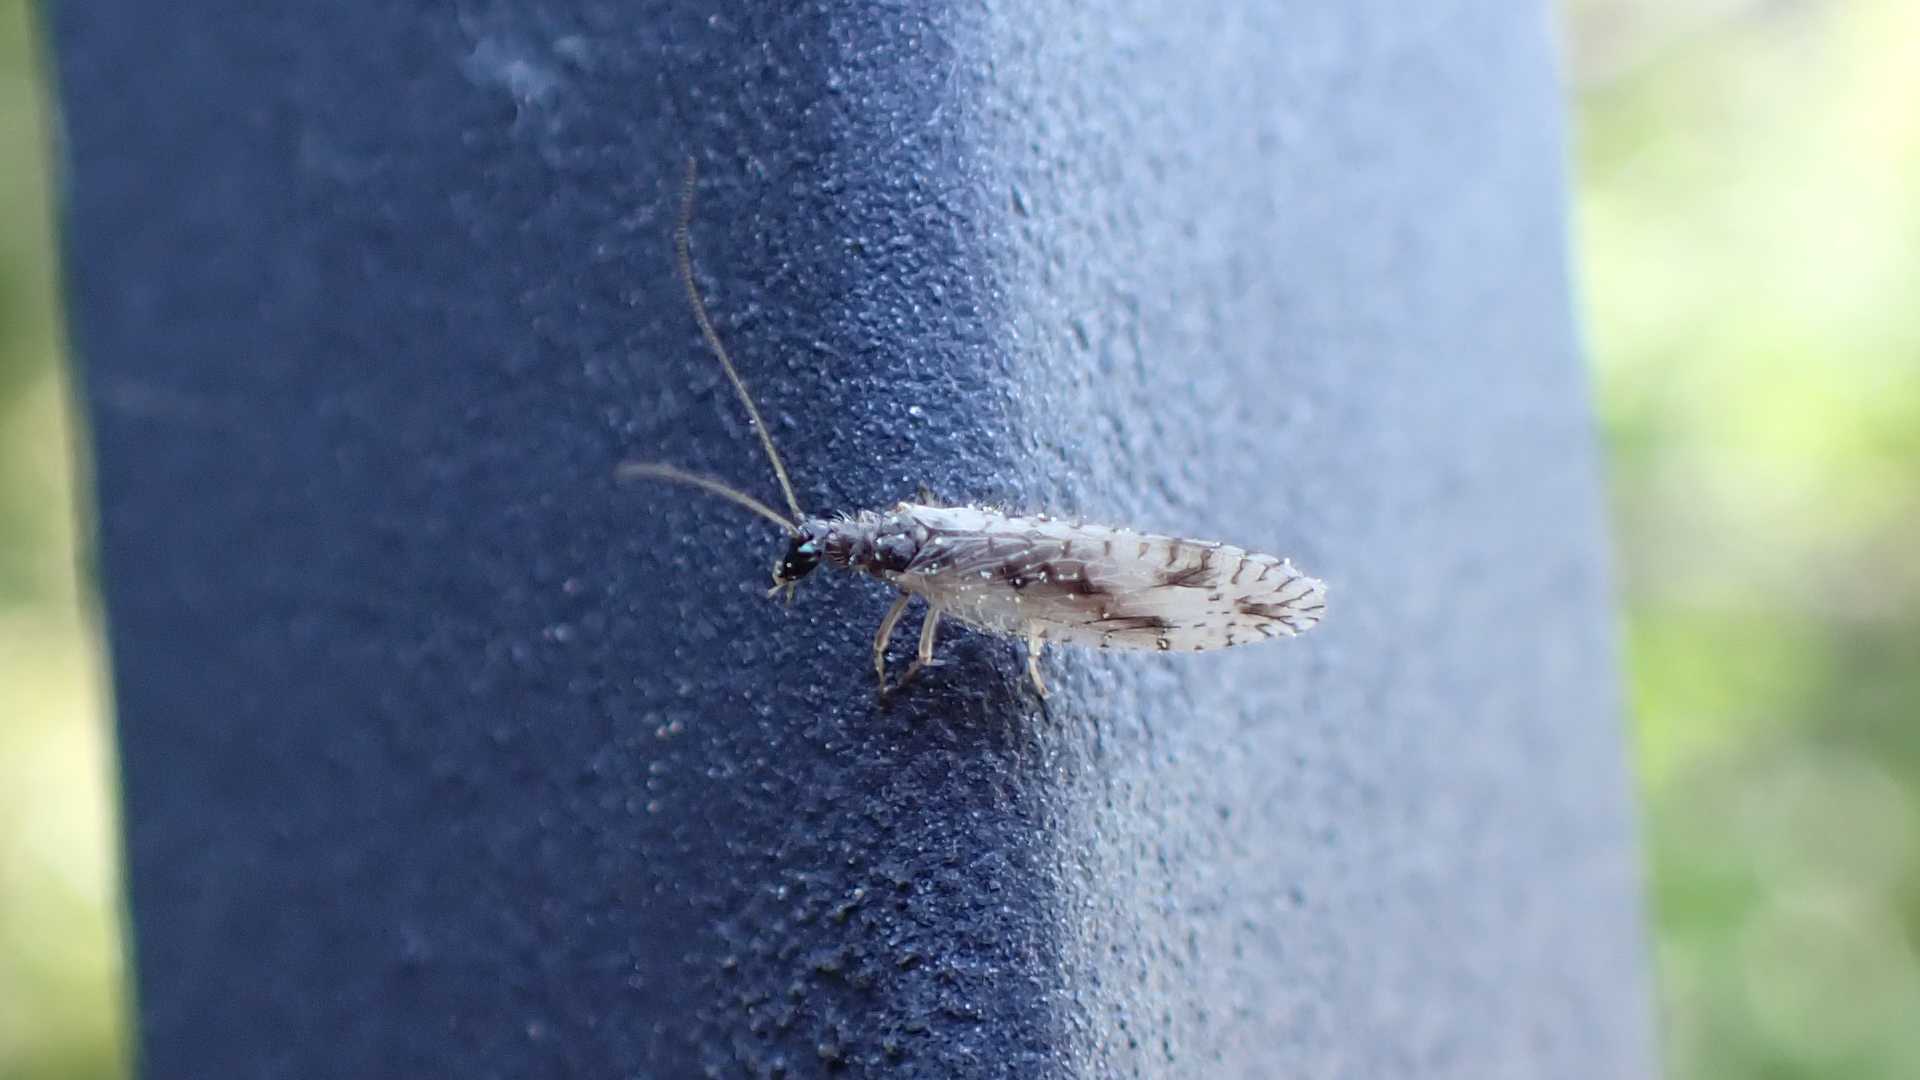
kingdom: Animalia
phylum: Arthropoda
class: Insecta
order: Neuroptera
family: Hemerobiidae
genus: Micromus
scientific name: Micromus variegatus
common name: Brown lacewing
